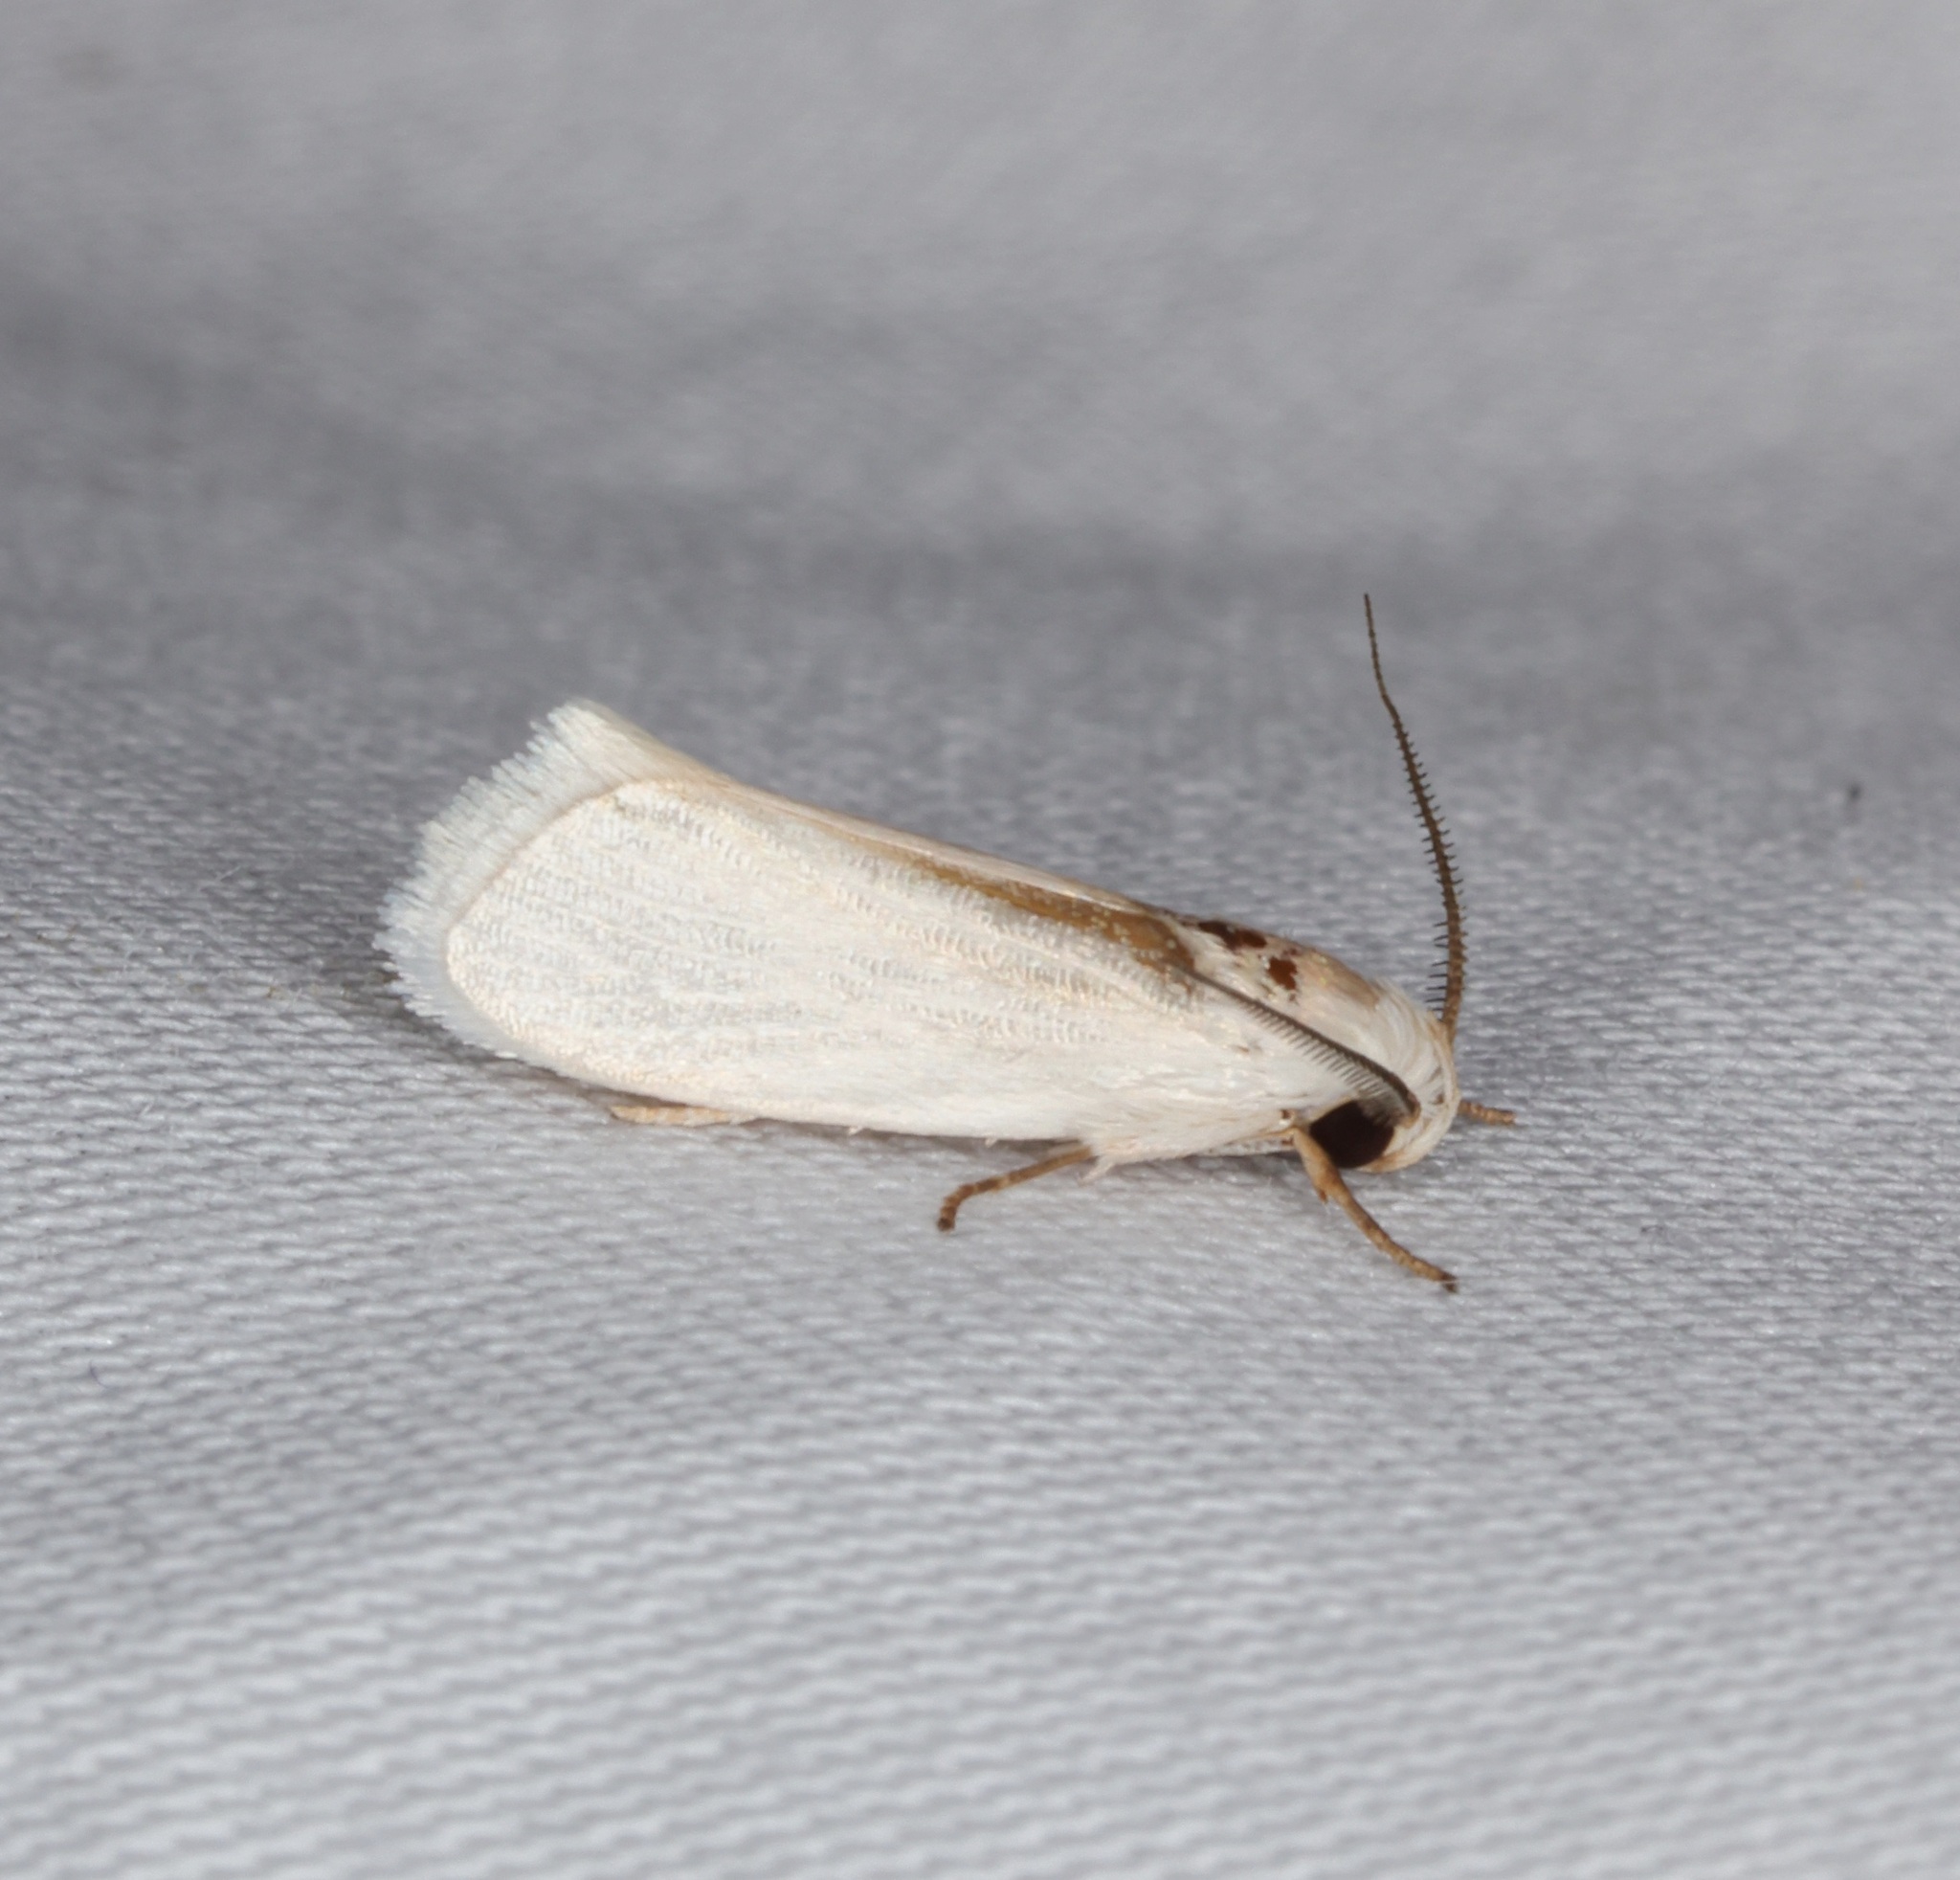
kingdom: Animalia
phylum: Arthropoda
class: Insecta
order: Lepidoptera
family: Xyloryctidae
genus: Athrypsiastis
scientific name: Athrypsiastis salva
